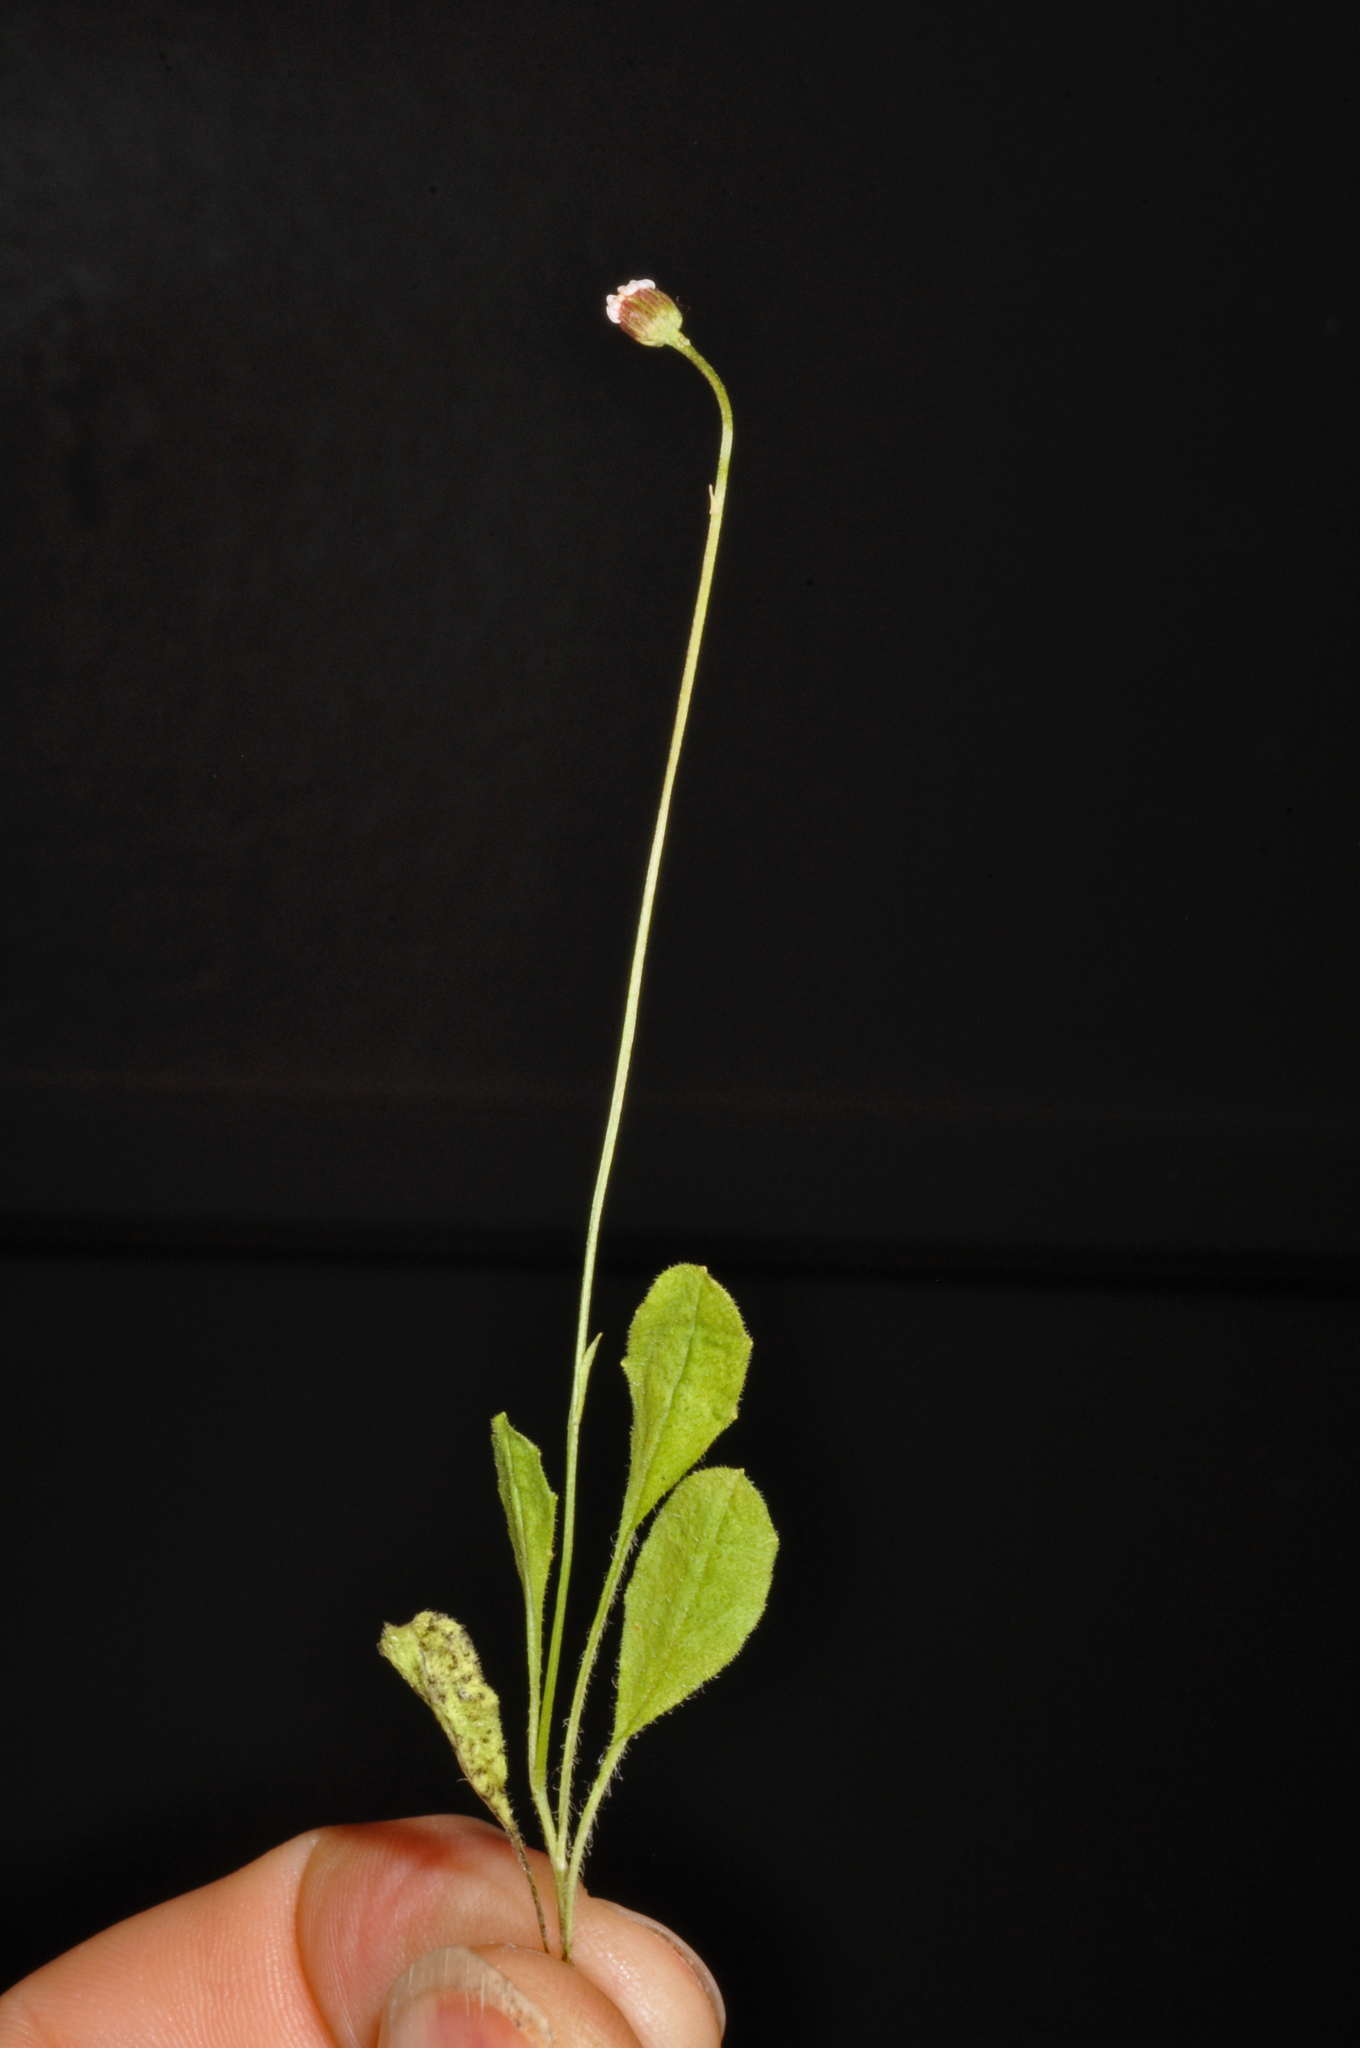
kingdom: Plantae
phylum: Tracheophyta
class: Magnoliopsida
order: Asterales
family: Asteraceae
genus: Lagenophora
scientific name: Lagenophora schmidiae ter
